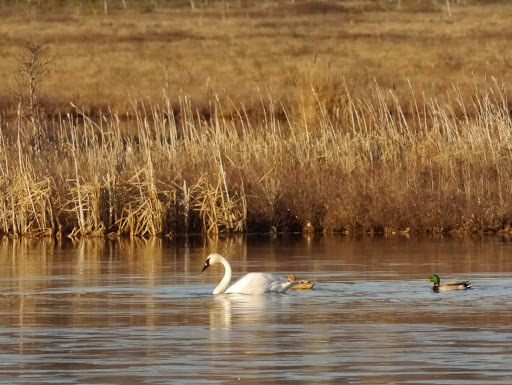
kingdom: Animalia
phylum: Chordata
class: Aves
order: Anseriformes
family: Anatidae
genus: Cygnus
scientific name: Cygnus buccinator
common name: Trumpeter swan
